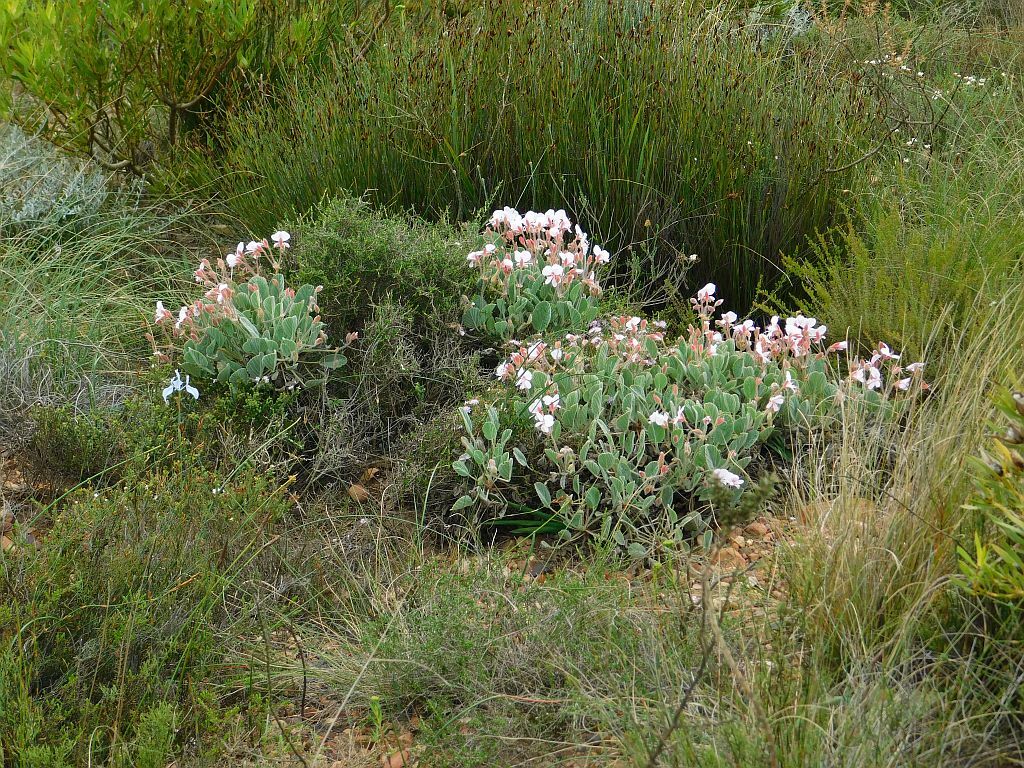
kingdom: Plantae
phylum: Tracheophyta
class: Magnoliopsida
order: Geraniales
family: Geraniaceae
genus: Pelargonium
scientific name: Pelargonium ovale
